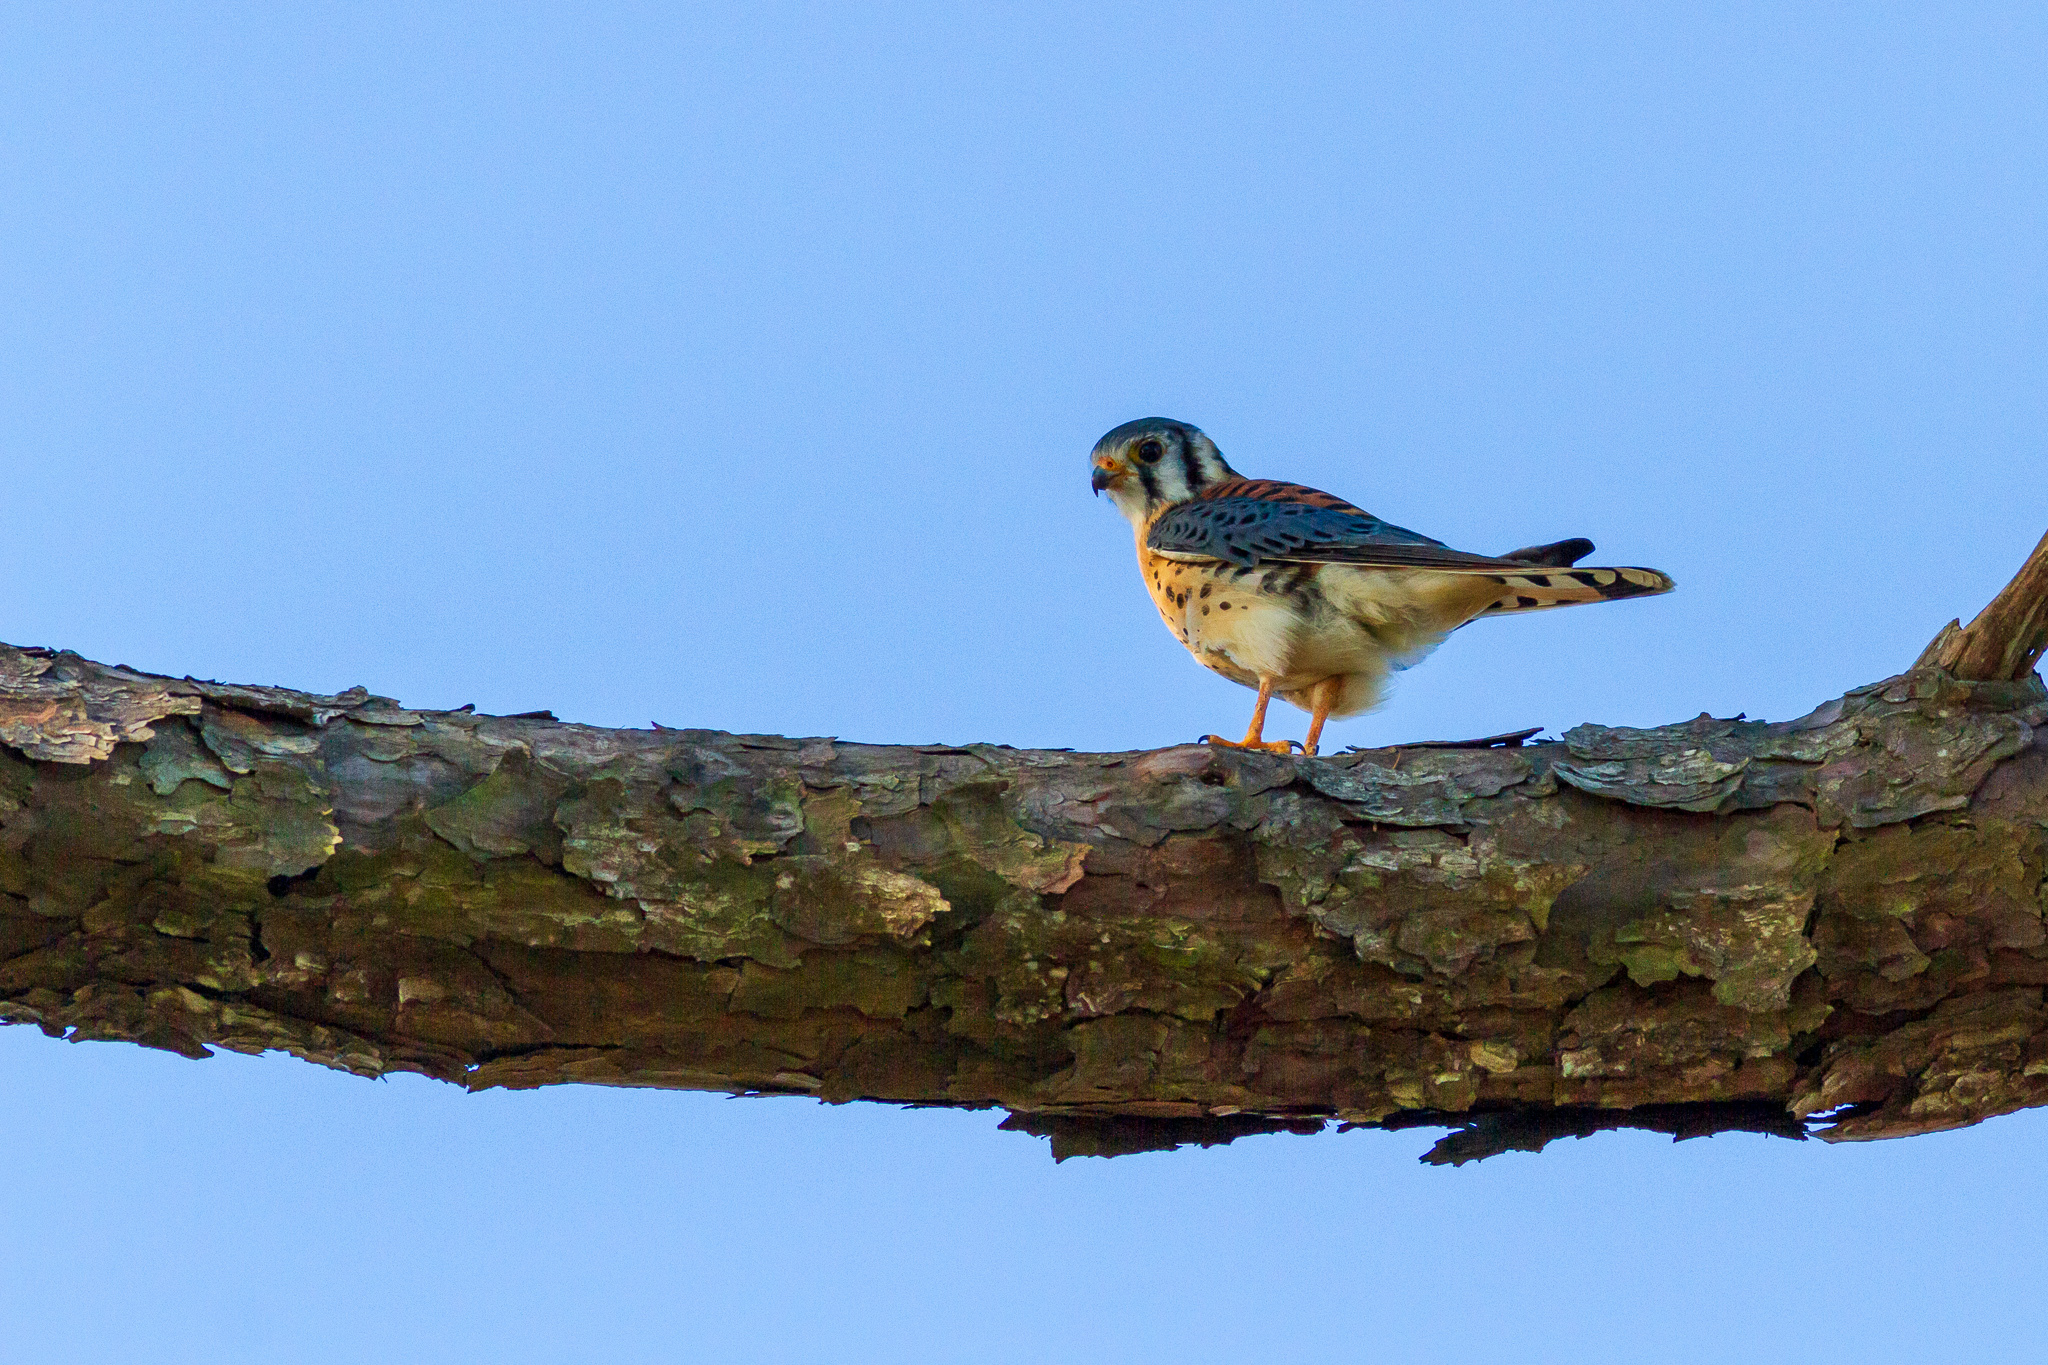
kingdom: Animalia
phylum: Chordata
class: Aves
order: Falconiformes
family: Falconidae
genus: Falco
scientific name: Falco sparverius
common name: American kestrel
